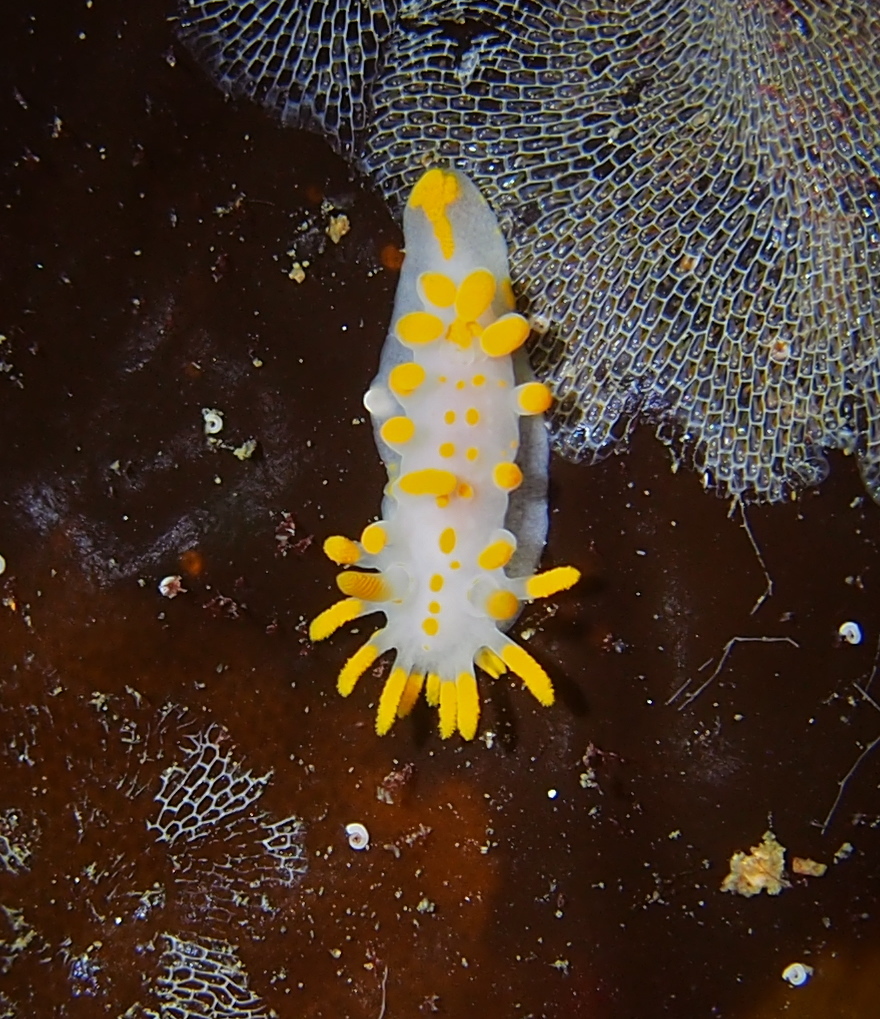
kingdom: Animalia
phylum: Mollusca
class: Gastropoda
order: Nudibranchia
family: Polyceridae
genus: Limacia
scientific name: Limacia clavigera
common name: Orange-clubbed sea slug
